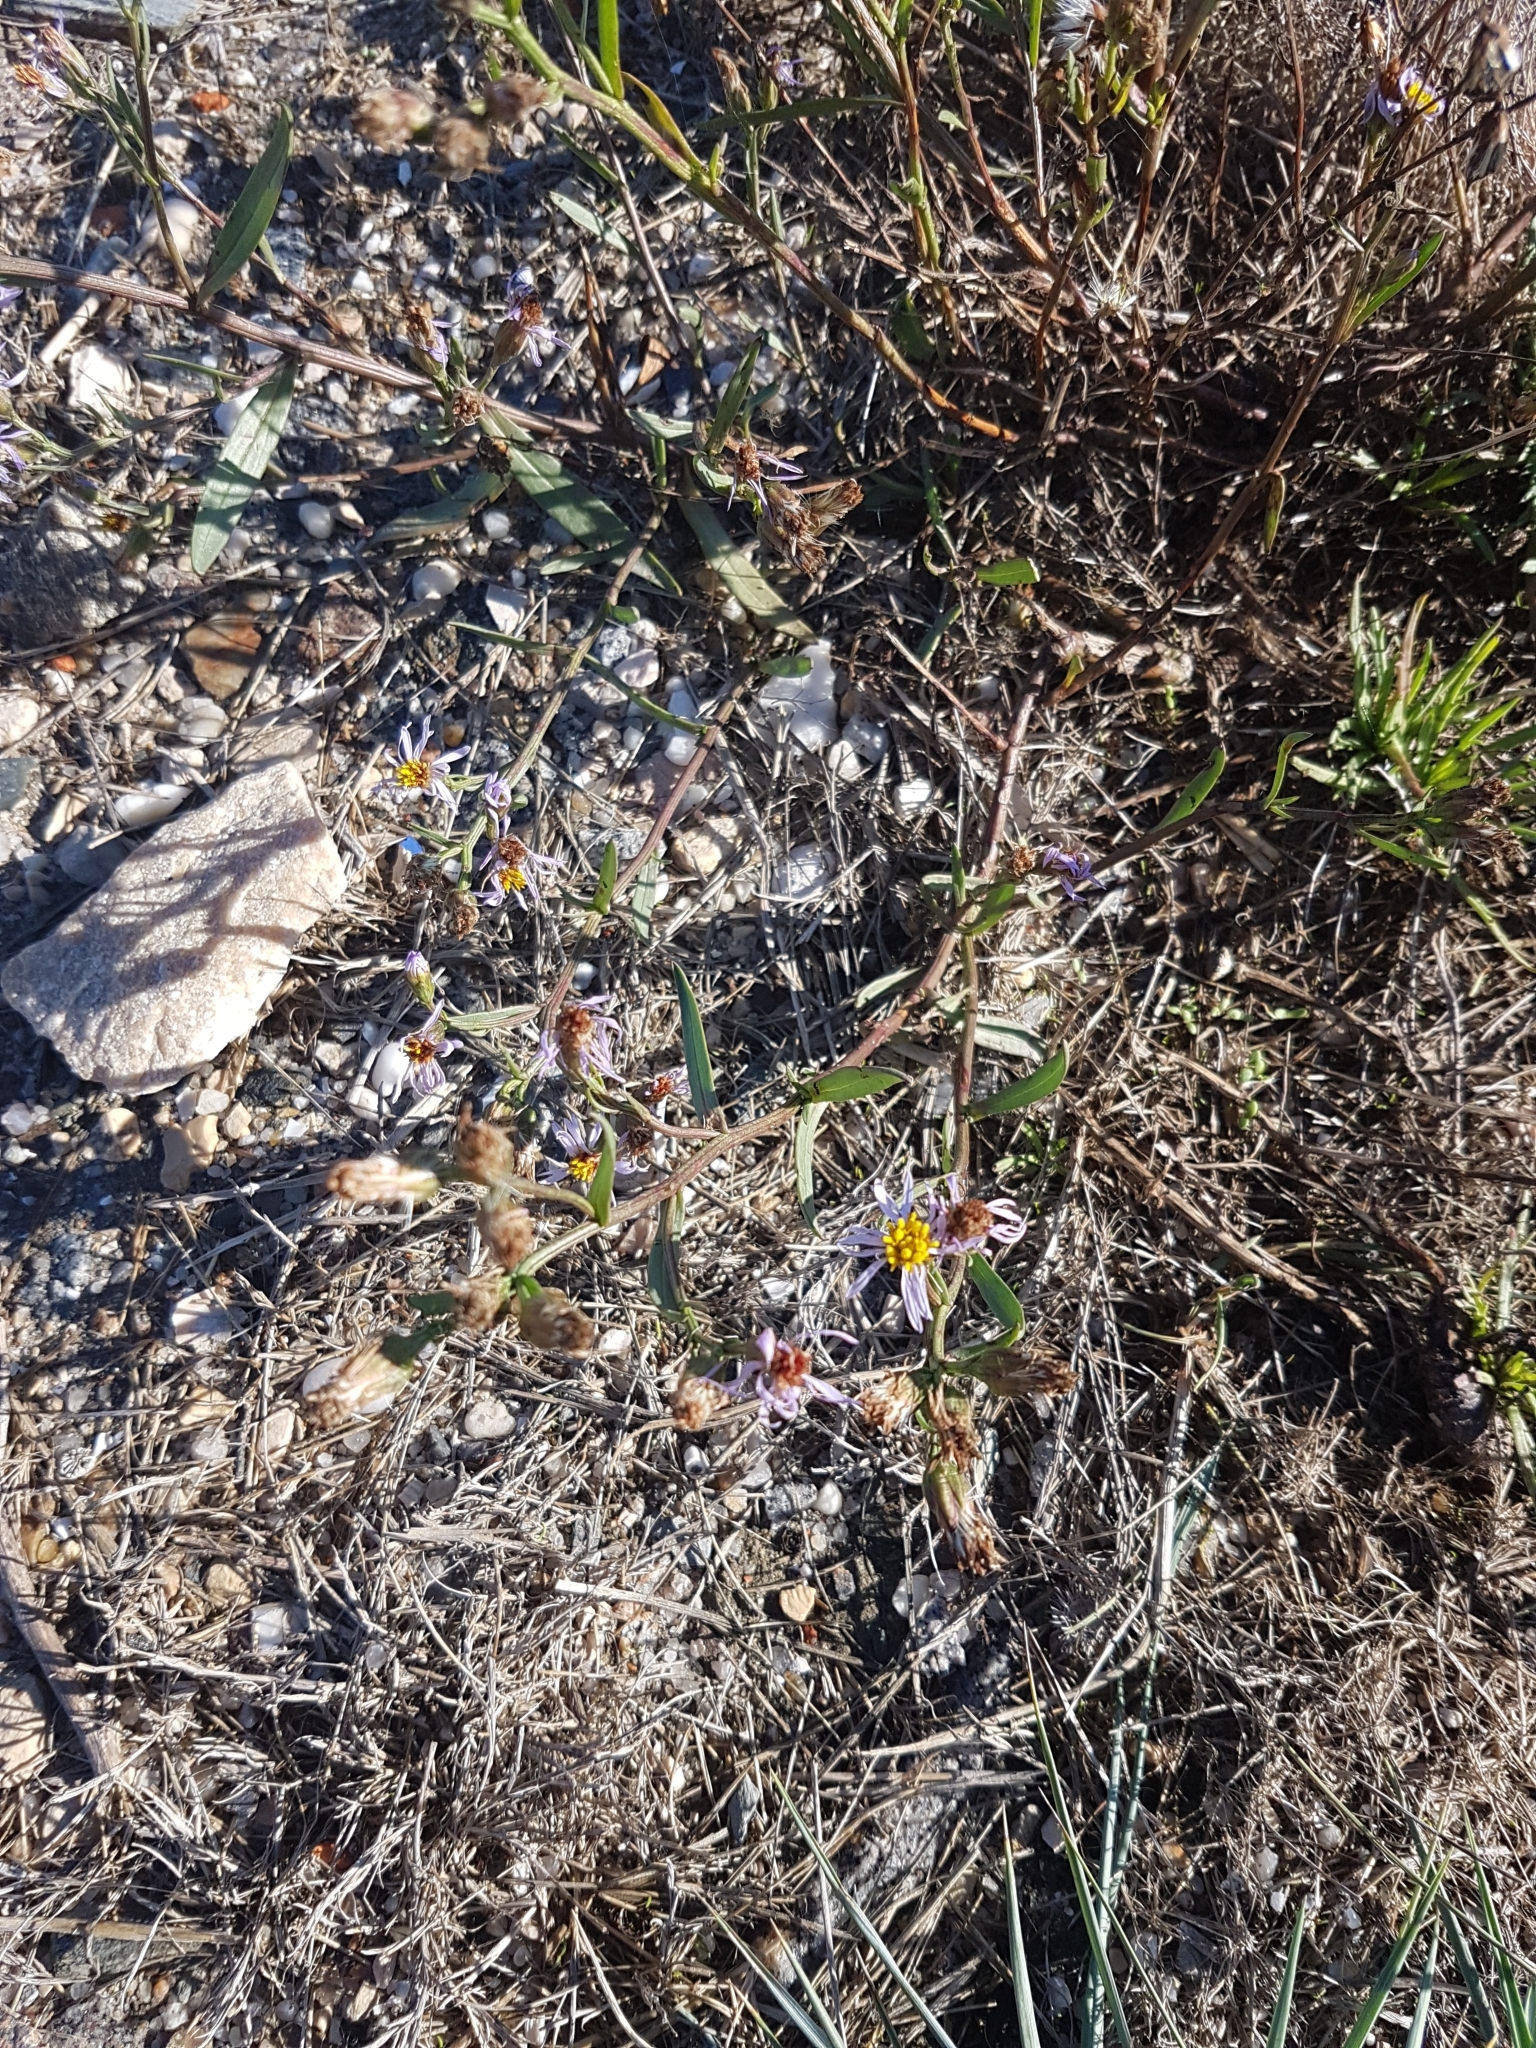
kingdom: Plantae
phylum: Tracheophyta
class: Magnoliopsida
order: Asterales
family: Asteraceae
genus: Tripolium
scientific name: Tripolium pannonicum
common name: Sea aster
